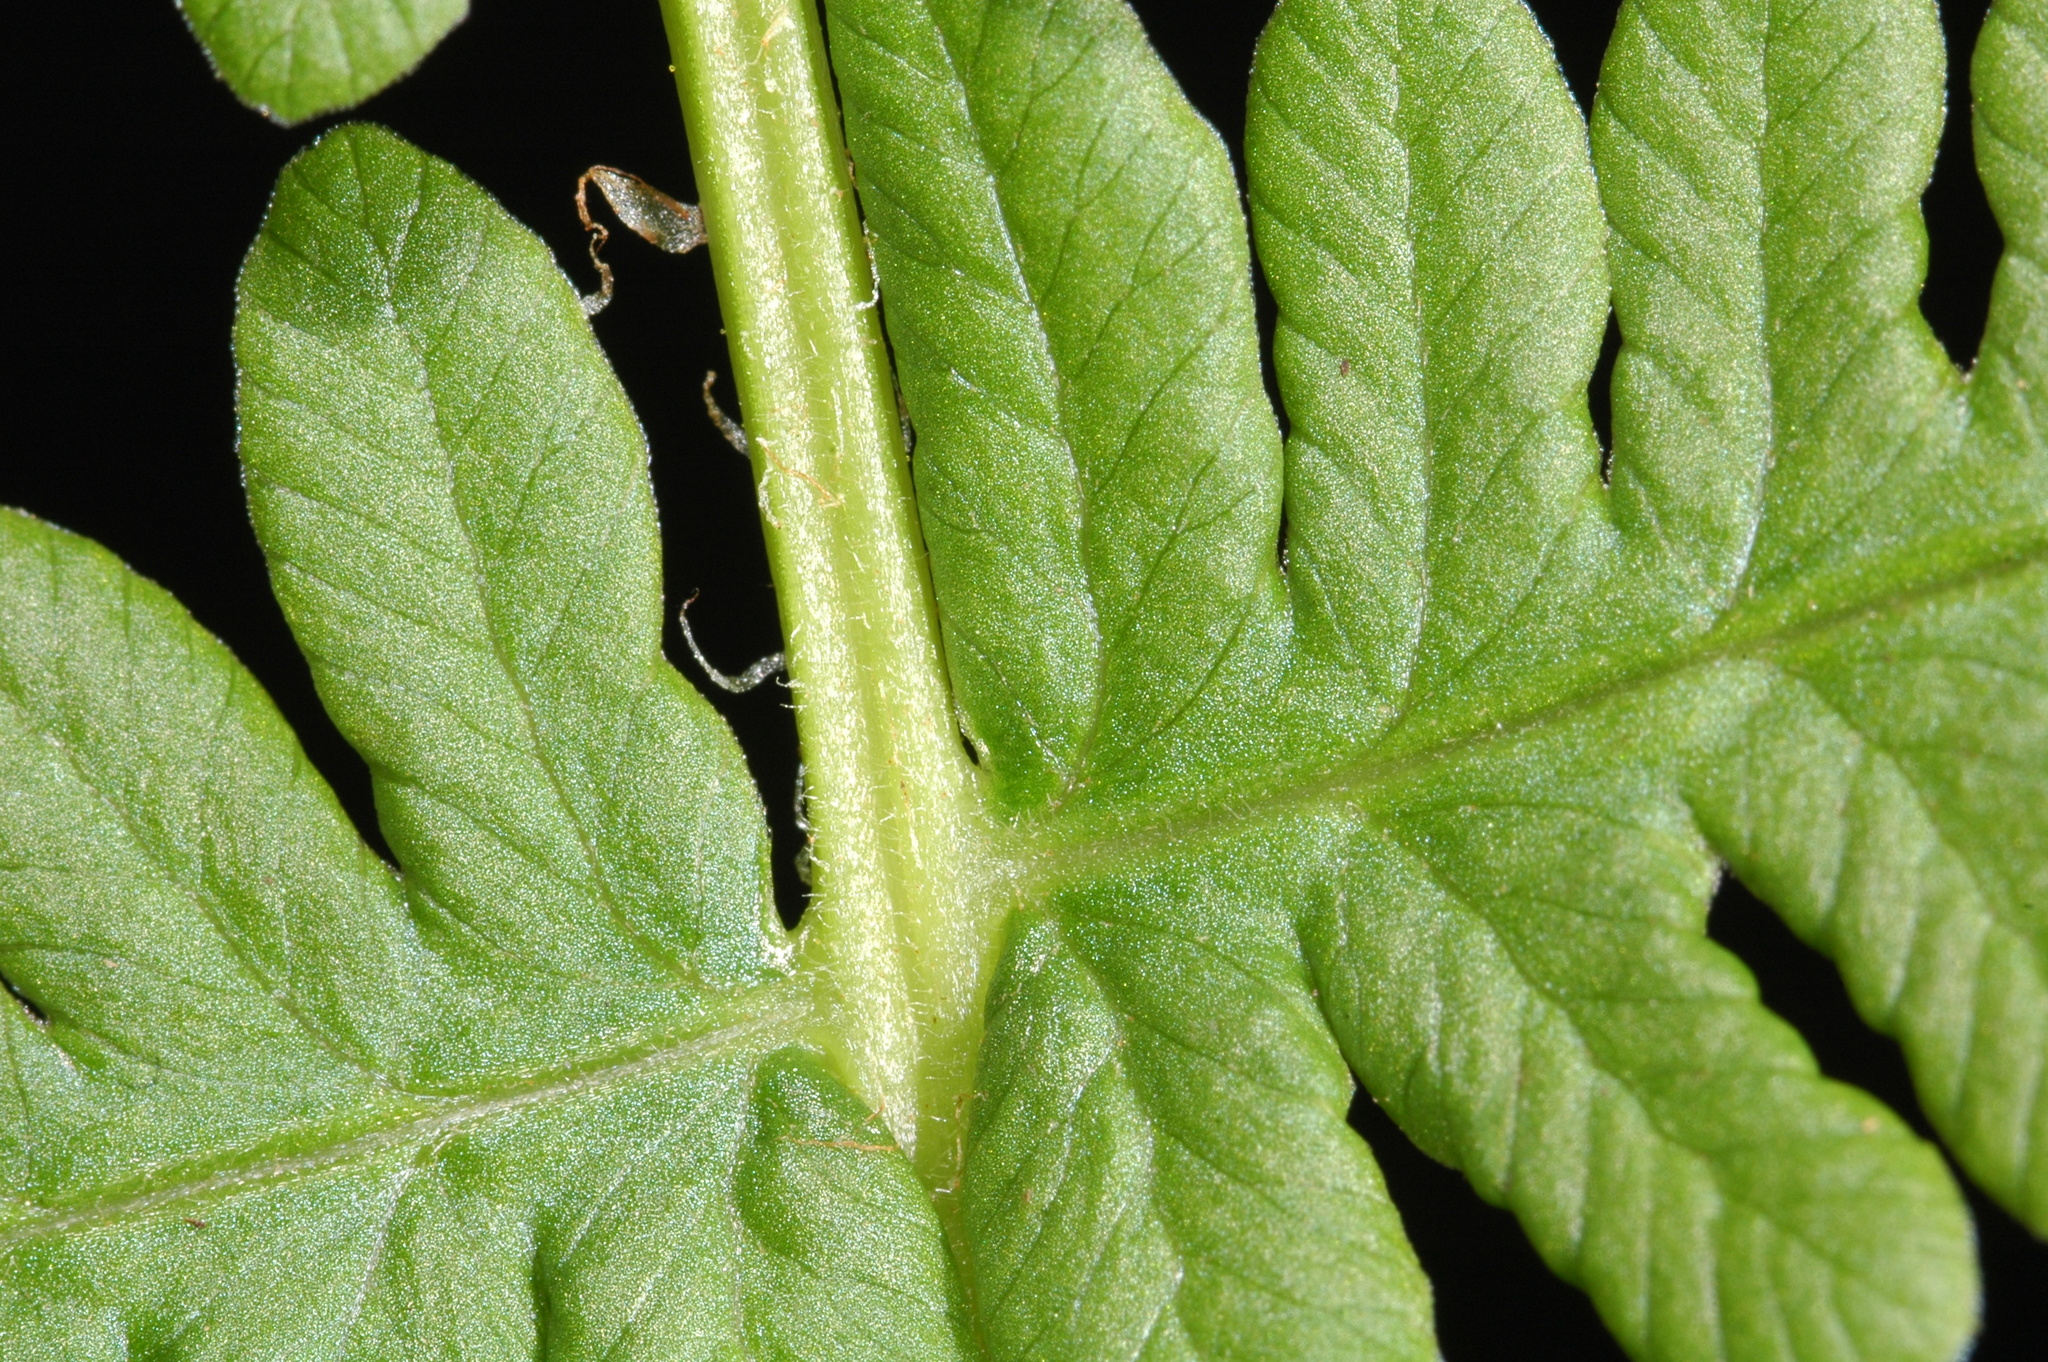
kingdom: Plantae
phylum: Tracheophyta
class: Polypodiopsida
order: Polypodiales
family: Thelypteridaceae
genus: Oreopteris
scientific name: Oreopteris quelpartensis
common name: Mountain fern
